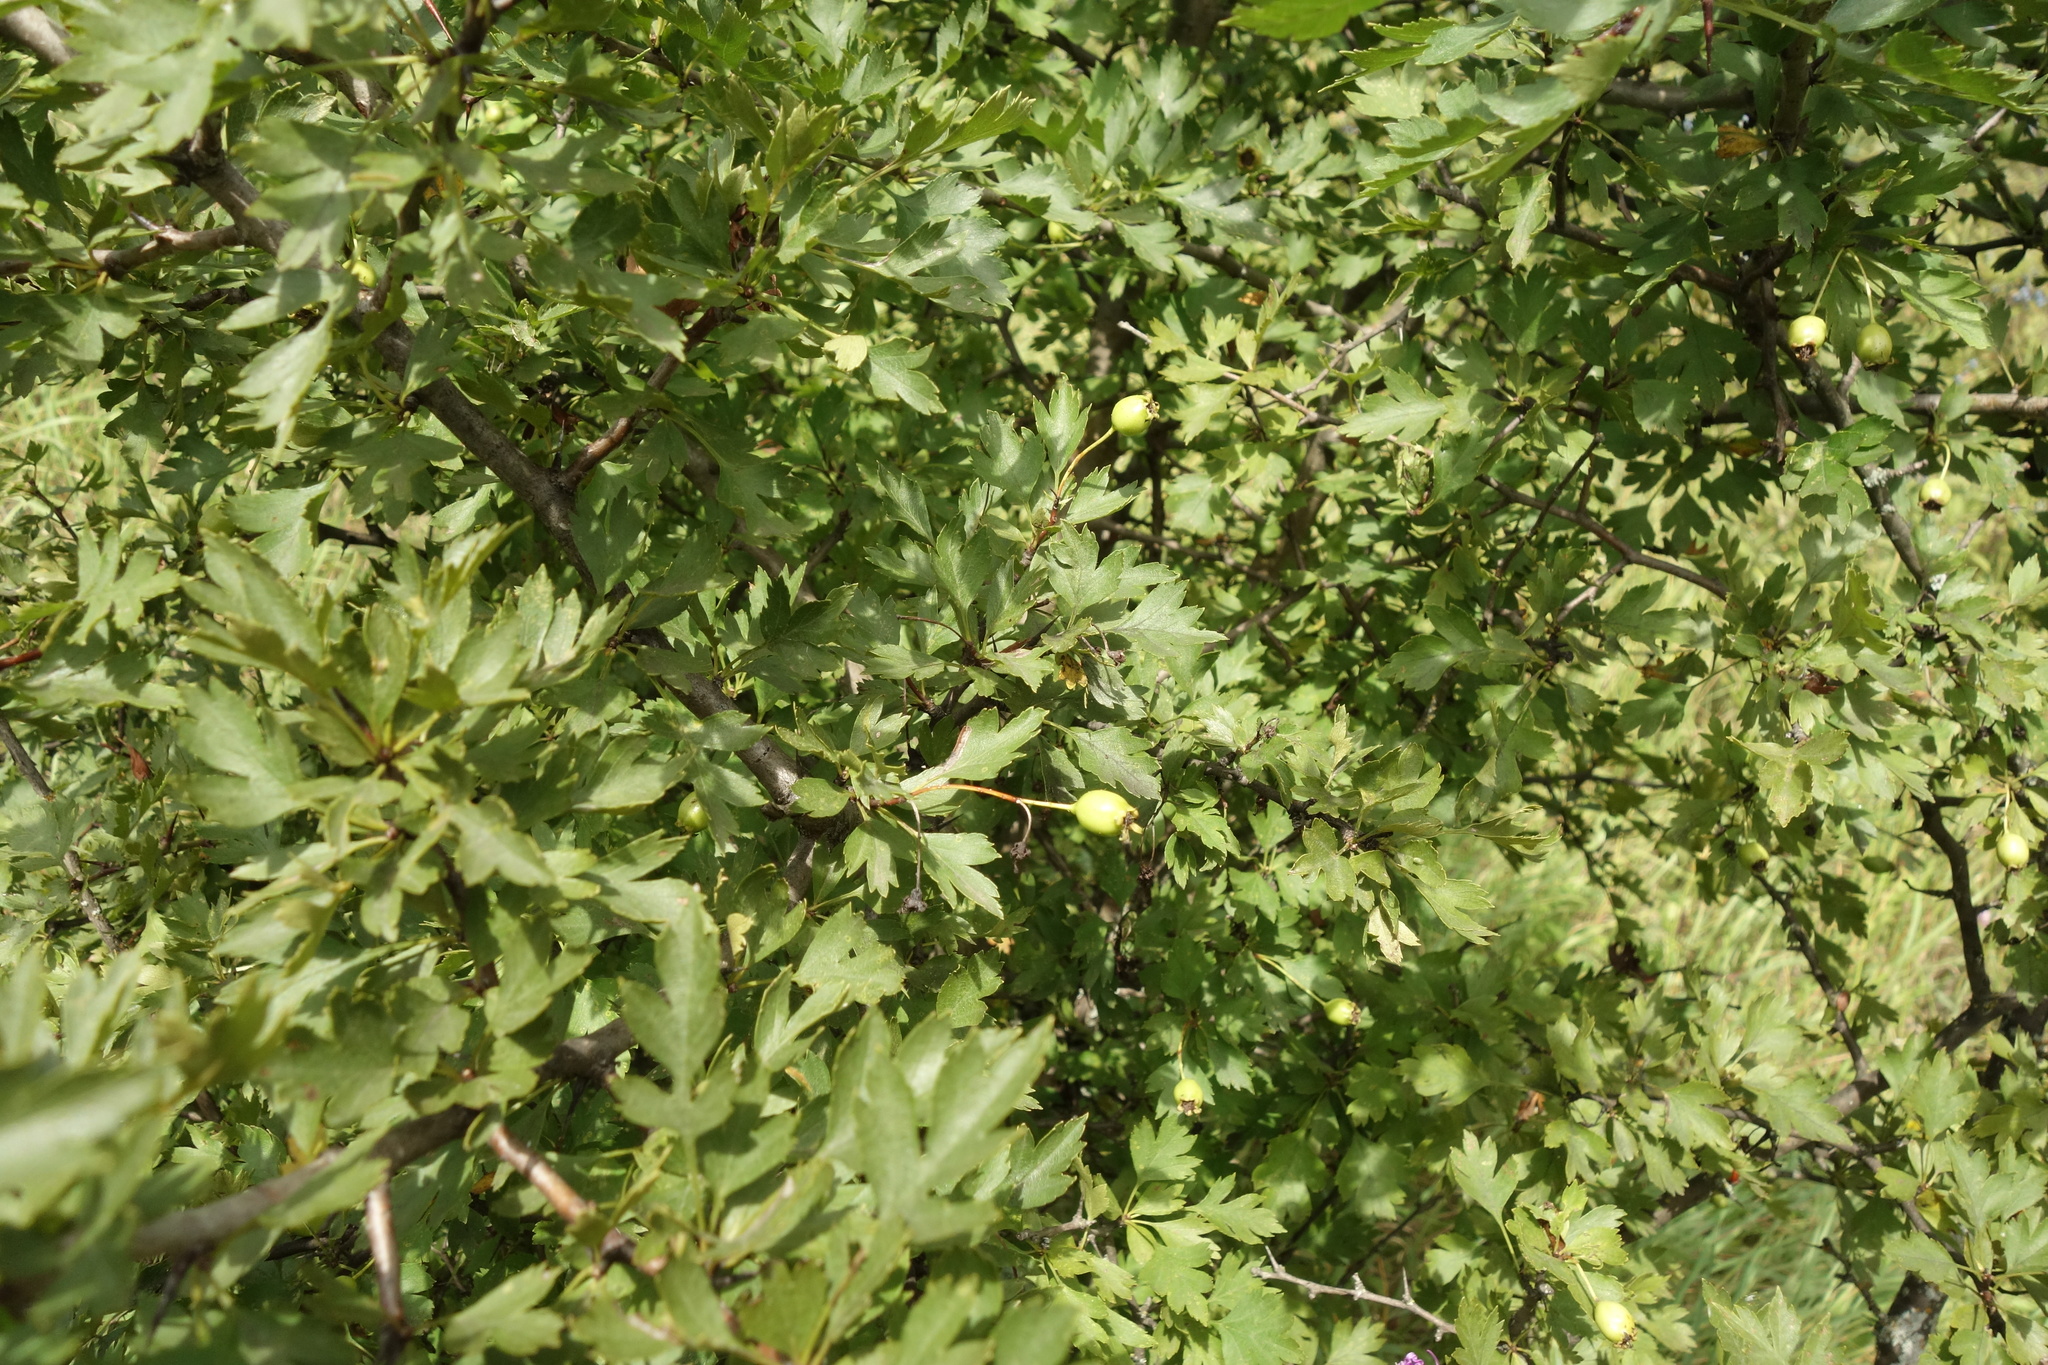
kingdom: Plantae
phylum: Tracheophyta
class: Magnoliopsida
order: Rosales
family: Rosaceae
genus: Crataegus
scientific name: Crataegus monogyna
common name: Hawthorn
